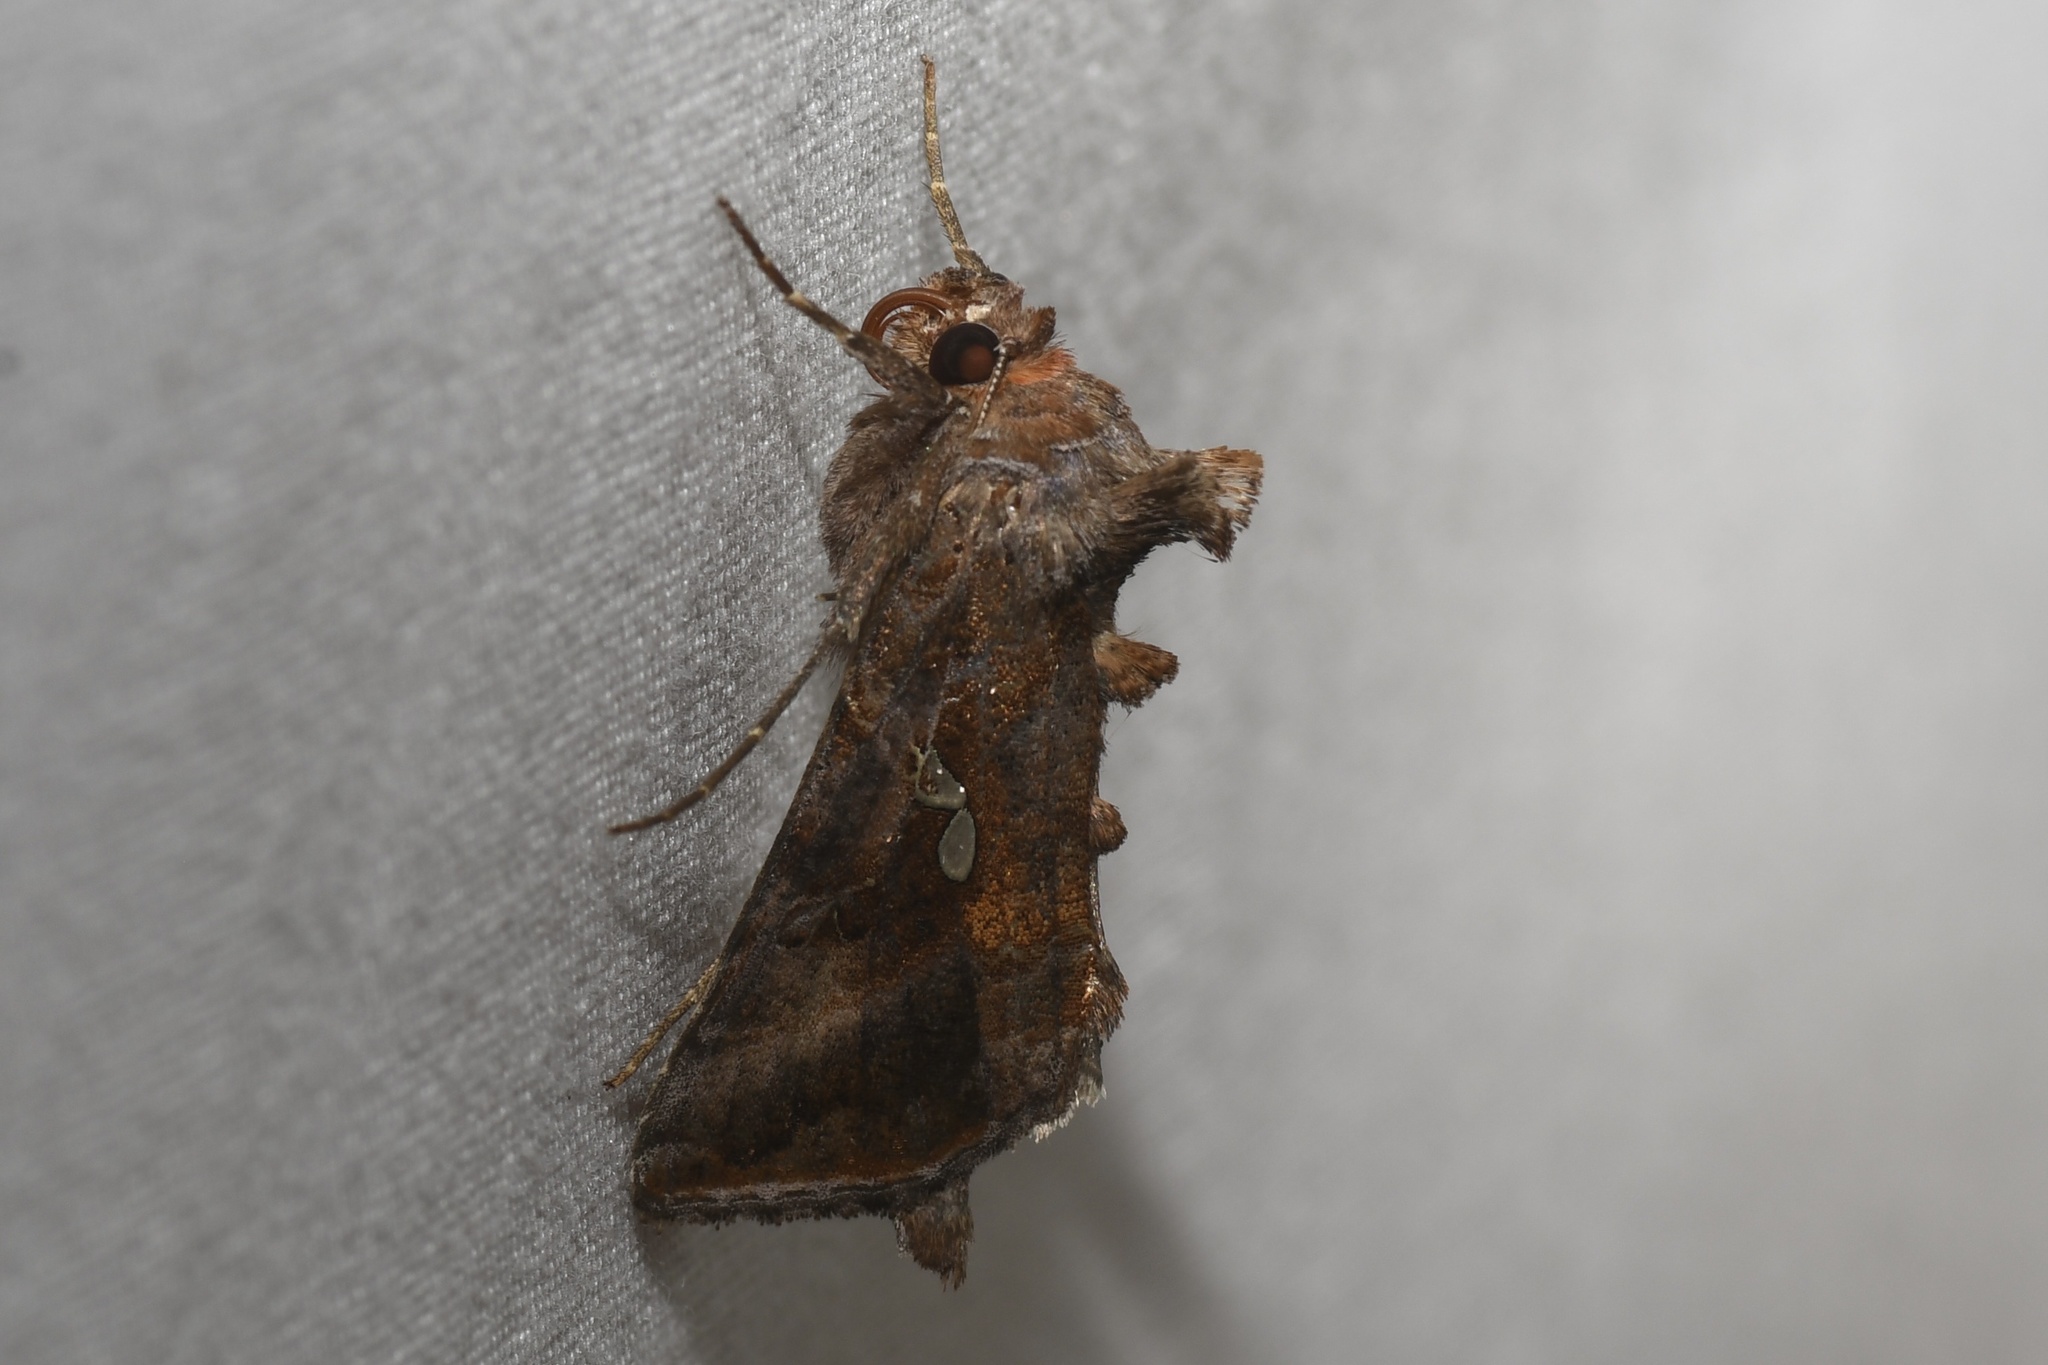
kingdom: Animalia
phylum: Arthropoda
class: Insecta
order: Lepidoptera
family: Noctuidae
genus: Autographa
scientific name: Autographa precationis
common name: Common looper moth
